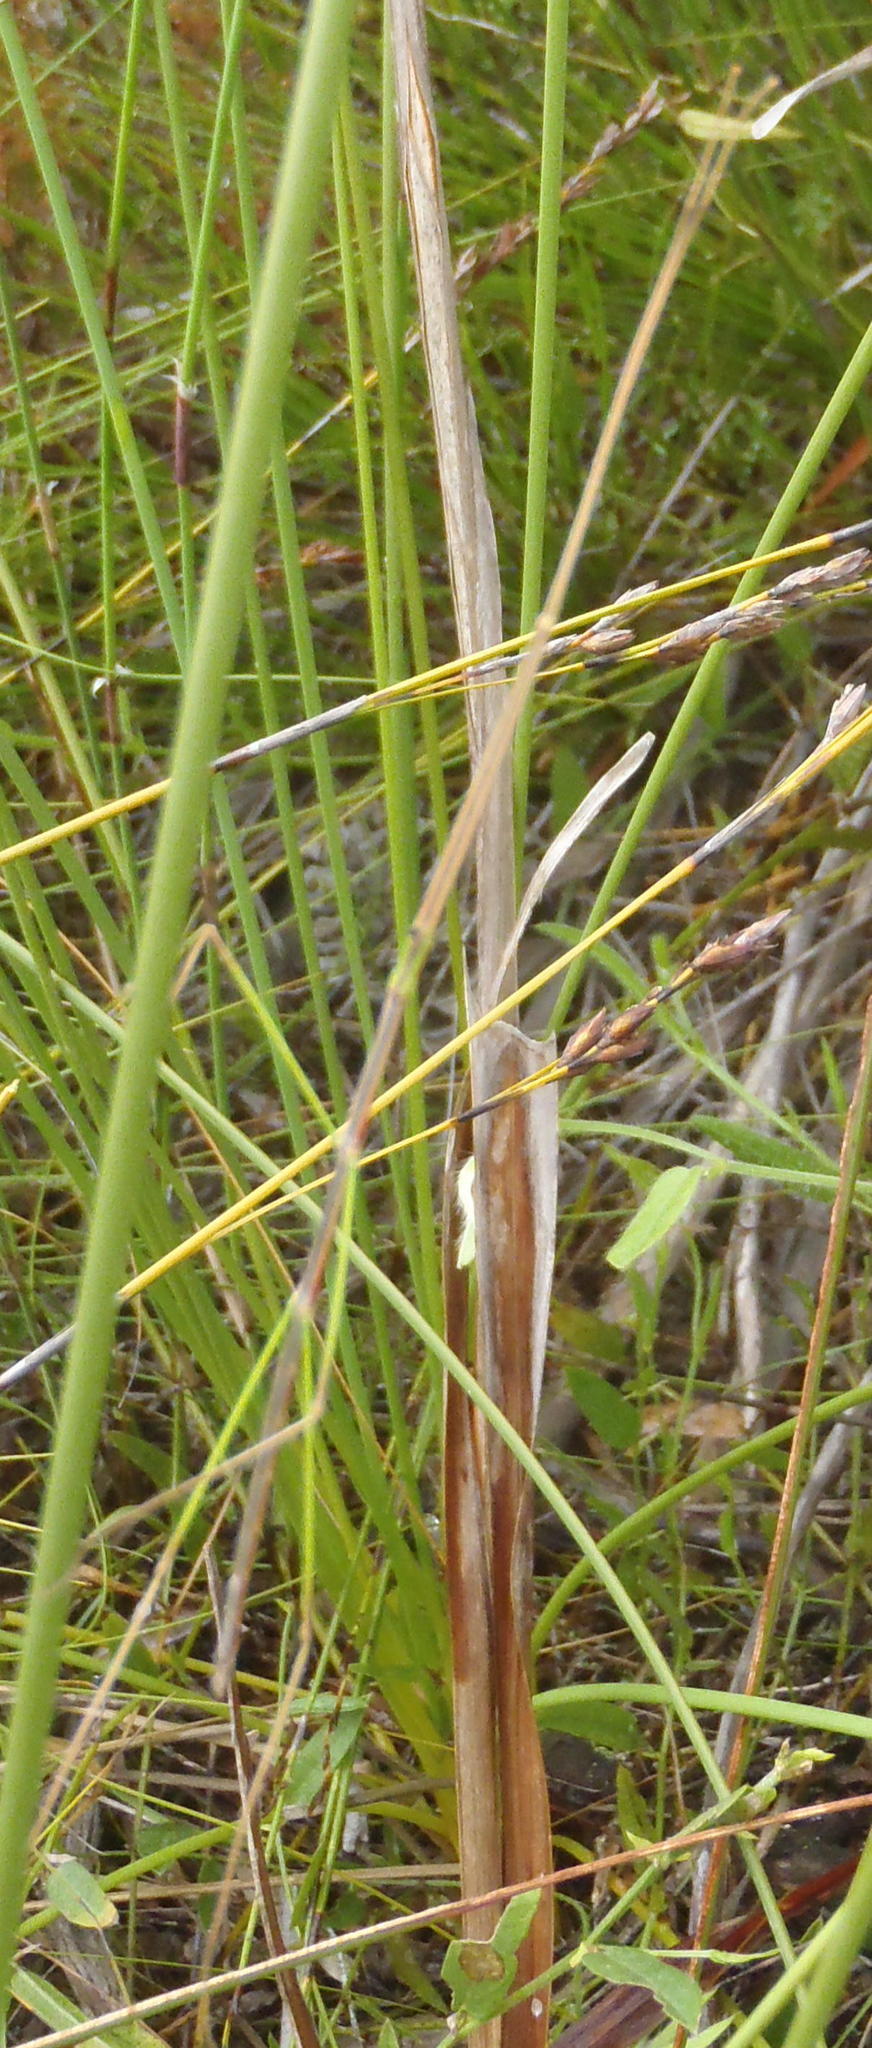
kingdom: Animalia
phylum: Arthropoda
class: Insecta
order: Phasmida
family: Bacillidae
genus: Maransis
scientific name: Maransis rufolineatus
